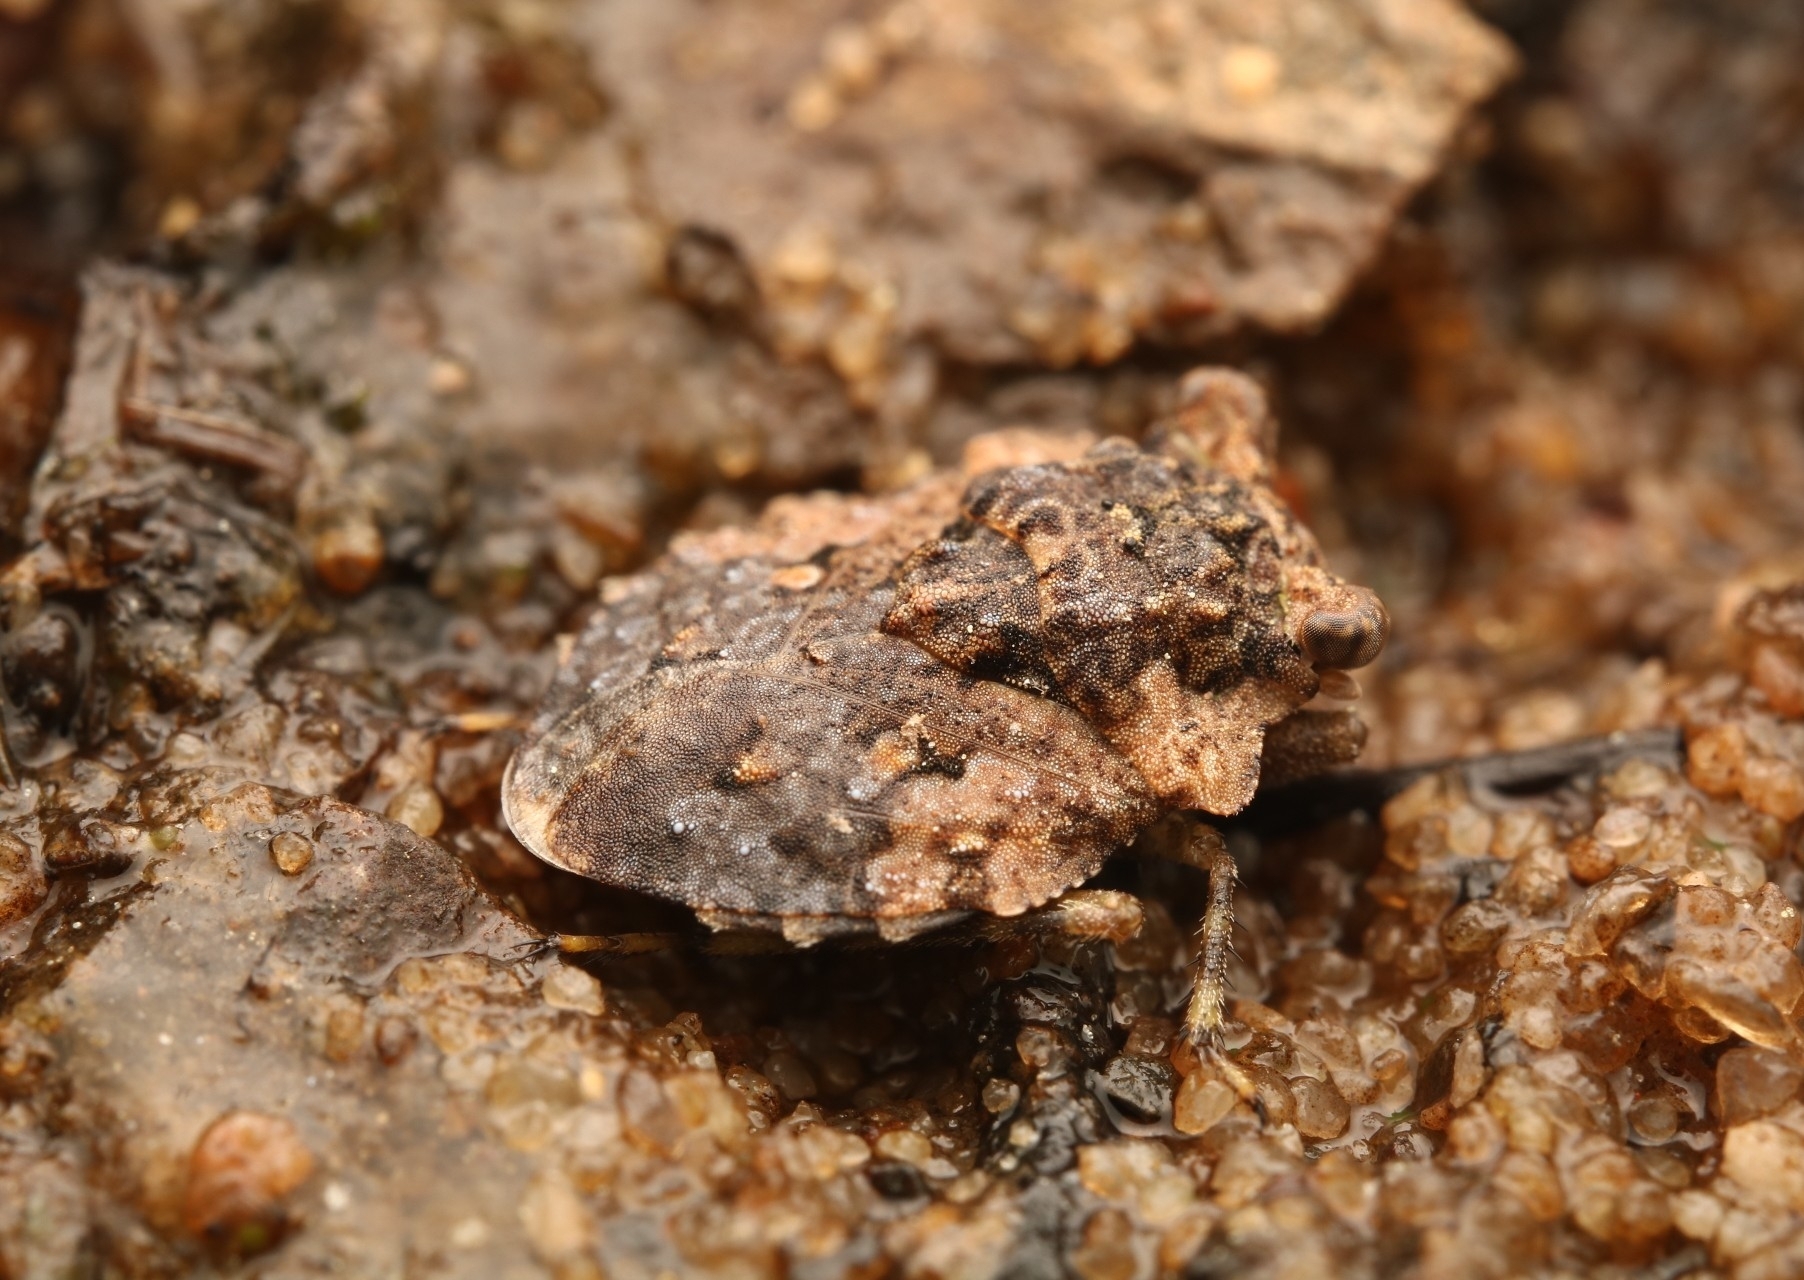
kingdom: Animalia
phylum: Arthropoda
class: Insecta
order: Hemiptera
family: Gelastocoridae
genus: Gelastocoris
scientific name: Gelastocoris oculatus
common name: Toad bug
